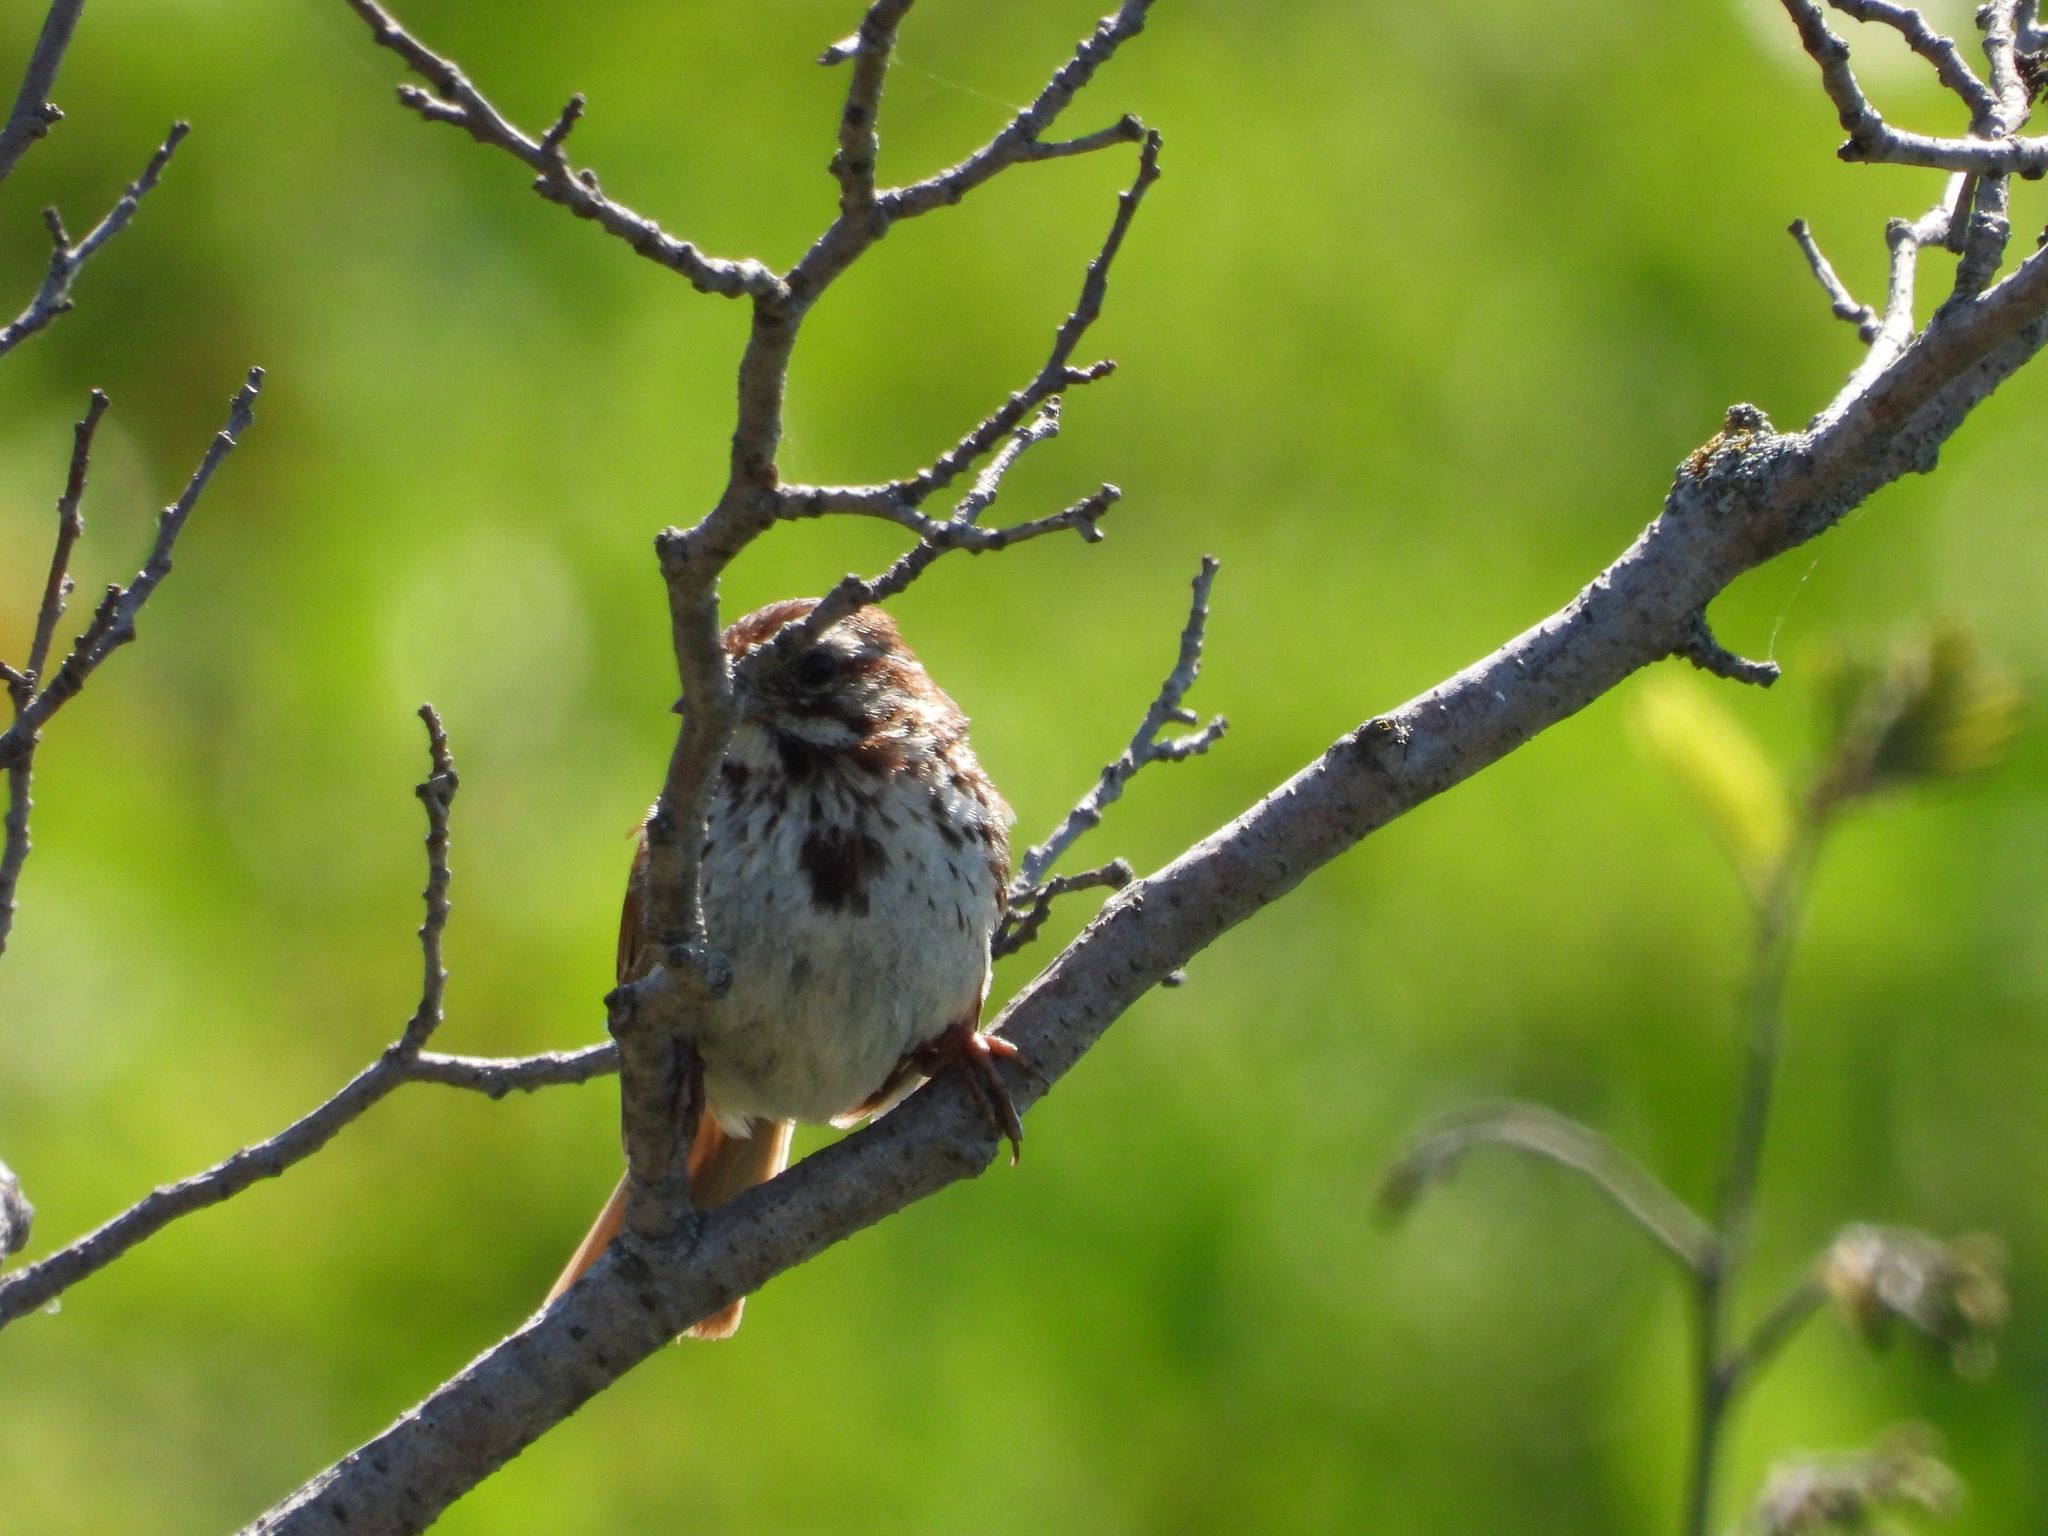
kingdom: Animalia
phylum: Chordata
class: Aves
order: Passeriformes
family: Passerellidae
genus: Melospiza
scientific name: Melospiza melodia
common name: Song sparrow
